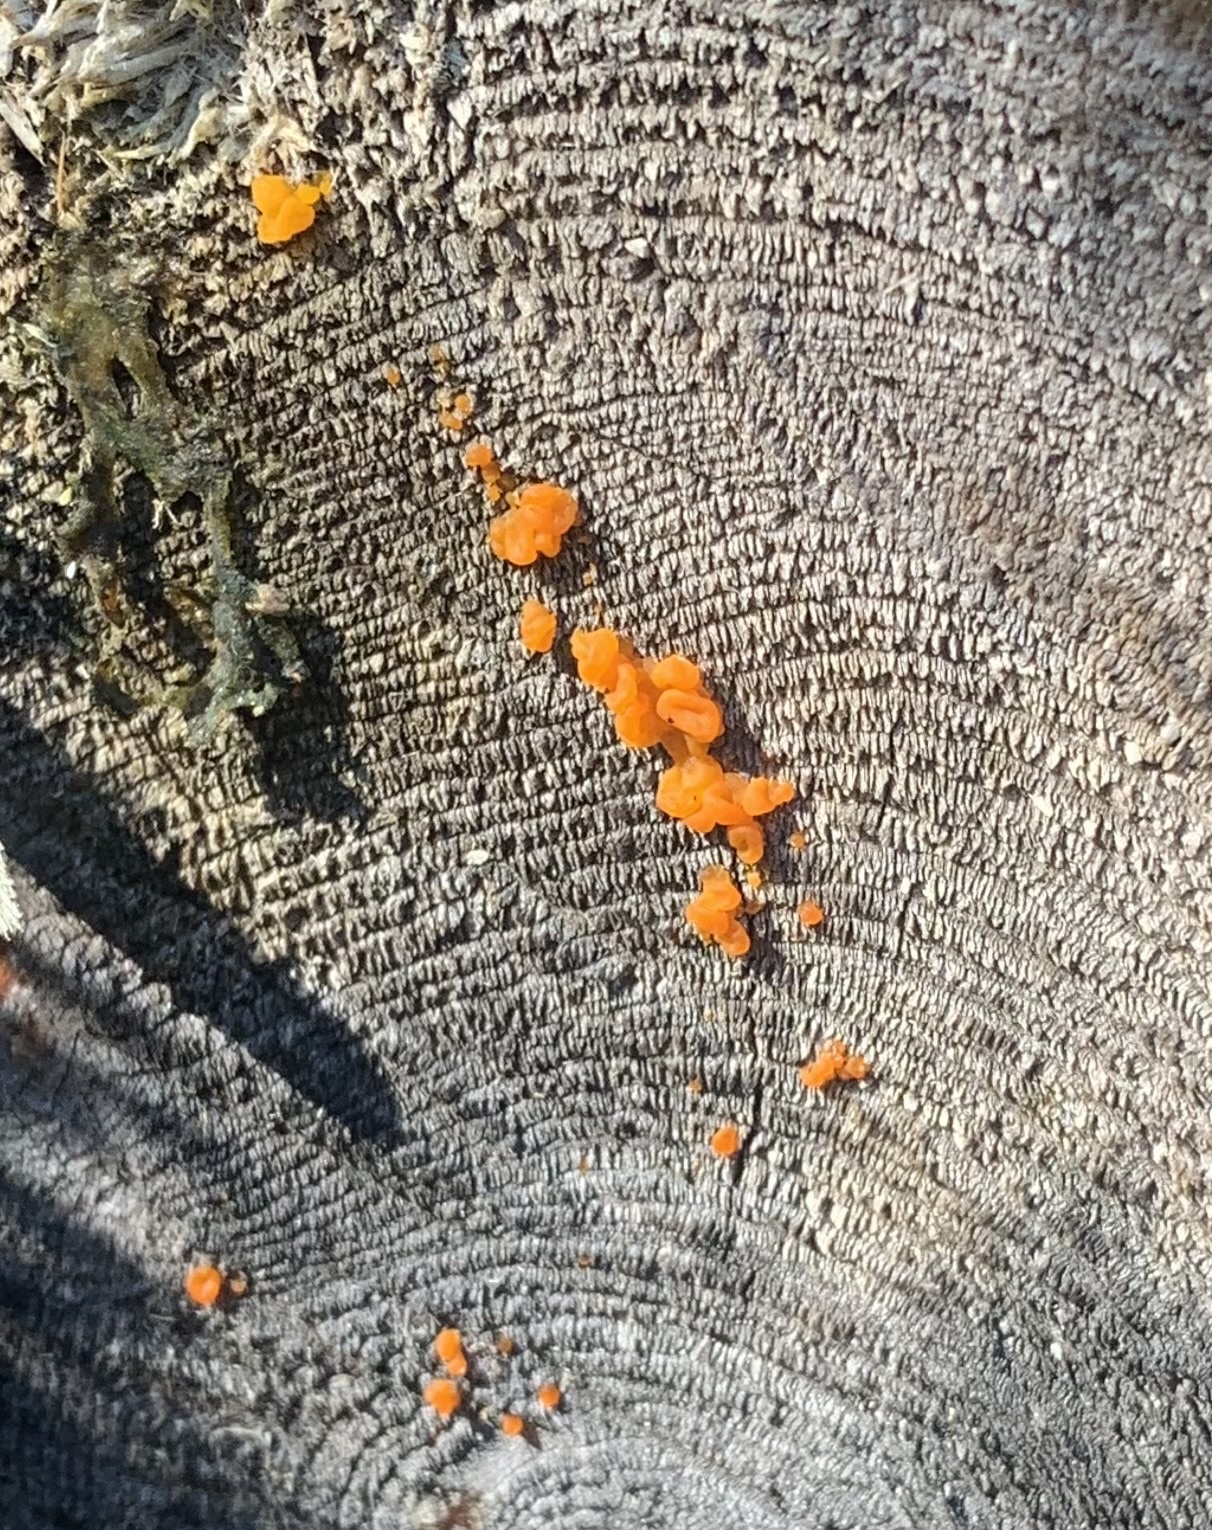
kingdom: Fungi
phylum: Basidiomycota
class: Dacrymycetes
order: Dacrymycetales
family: Dacrymycetaceae
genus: Dacrymyces
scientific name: Dacrymyces chrysospermus
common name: Orange jelly spot
